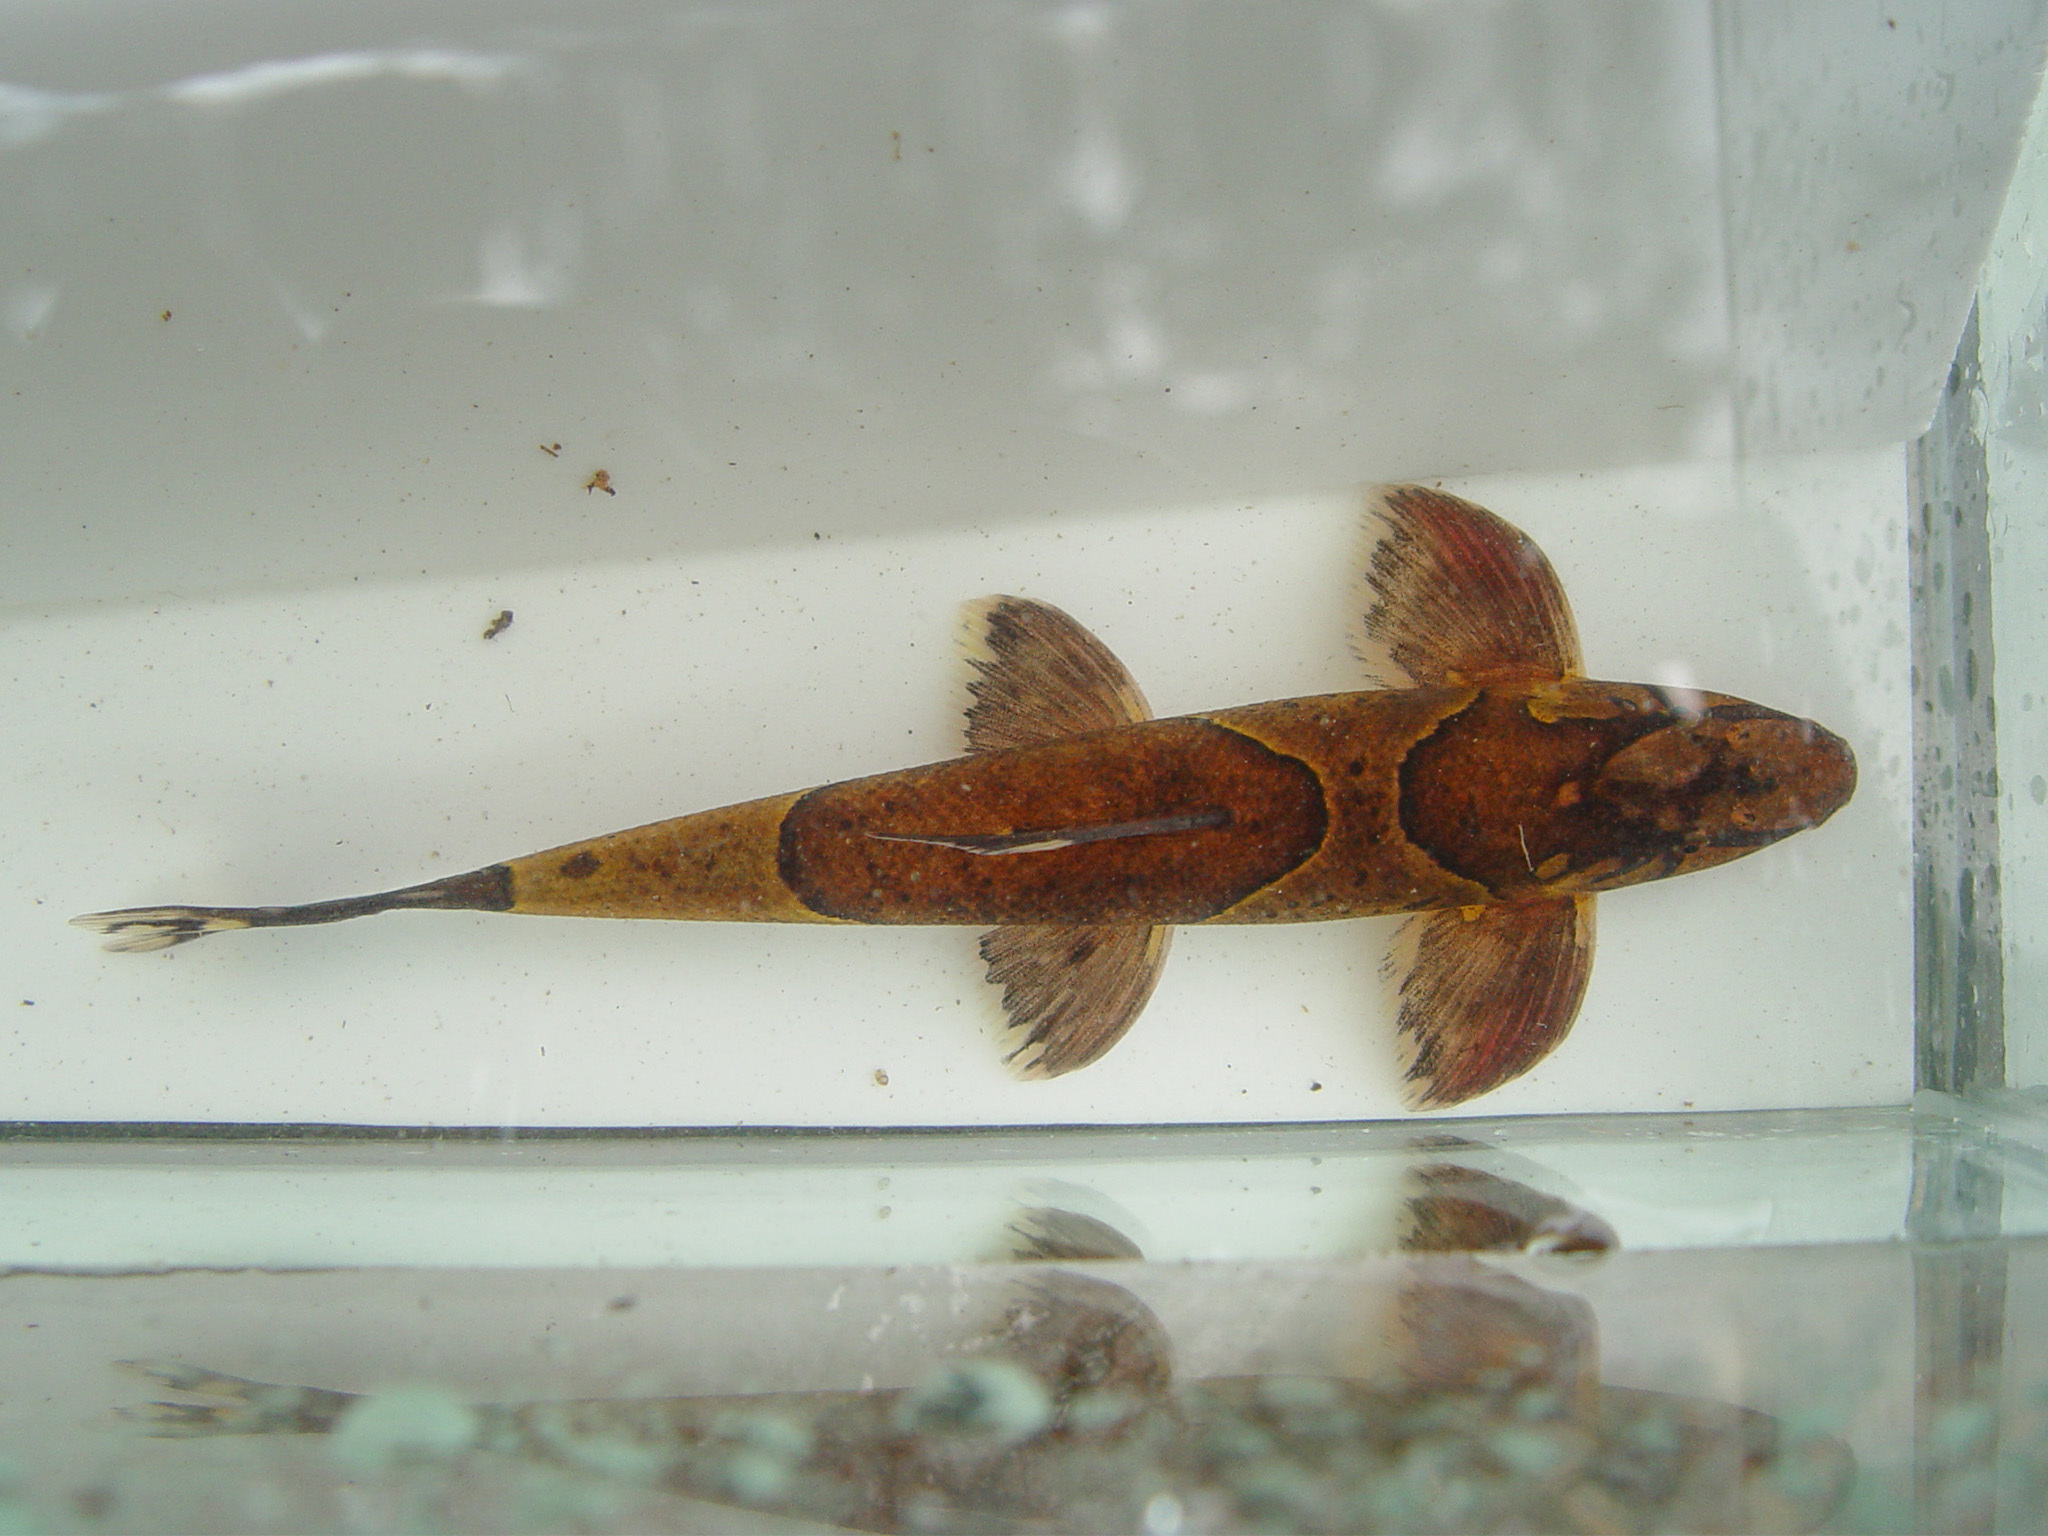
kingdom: Animalia
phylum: Chordata
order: Cypriniformes
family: Balitoridae
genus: Homaloptera
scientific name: Homaloptera parclitella
